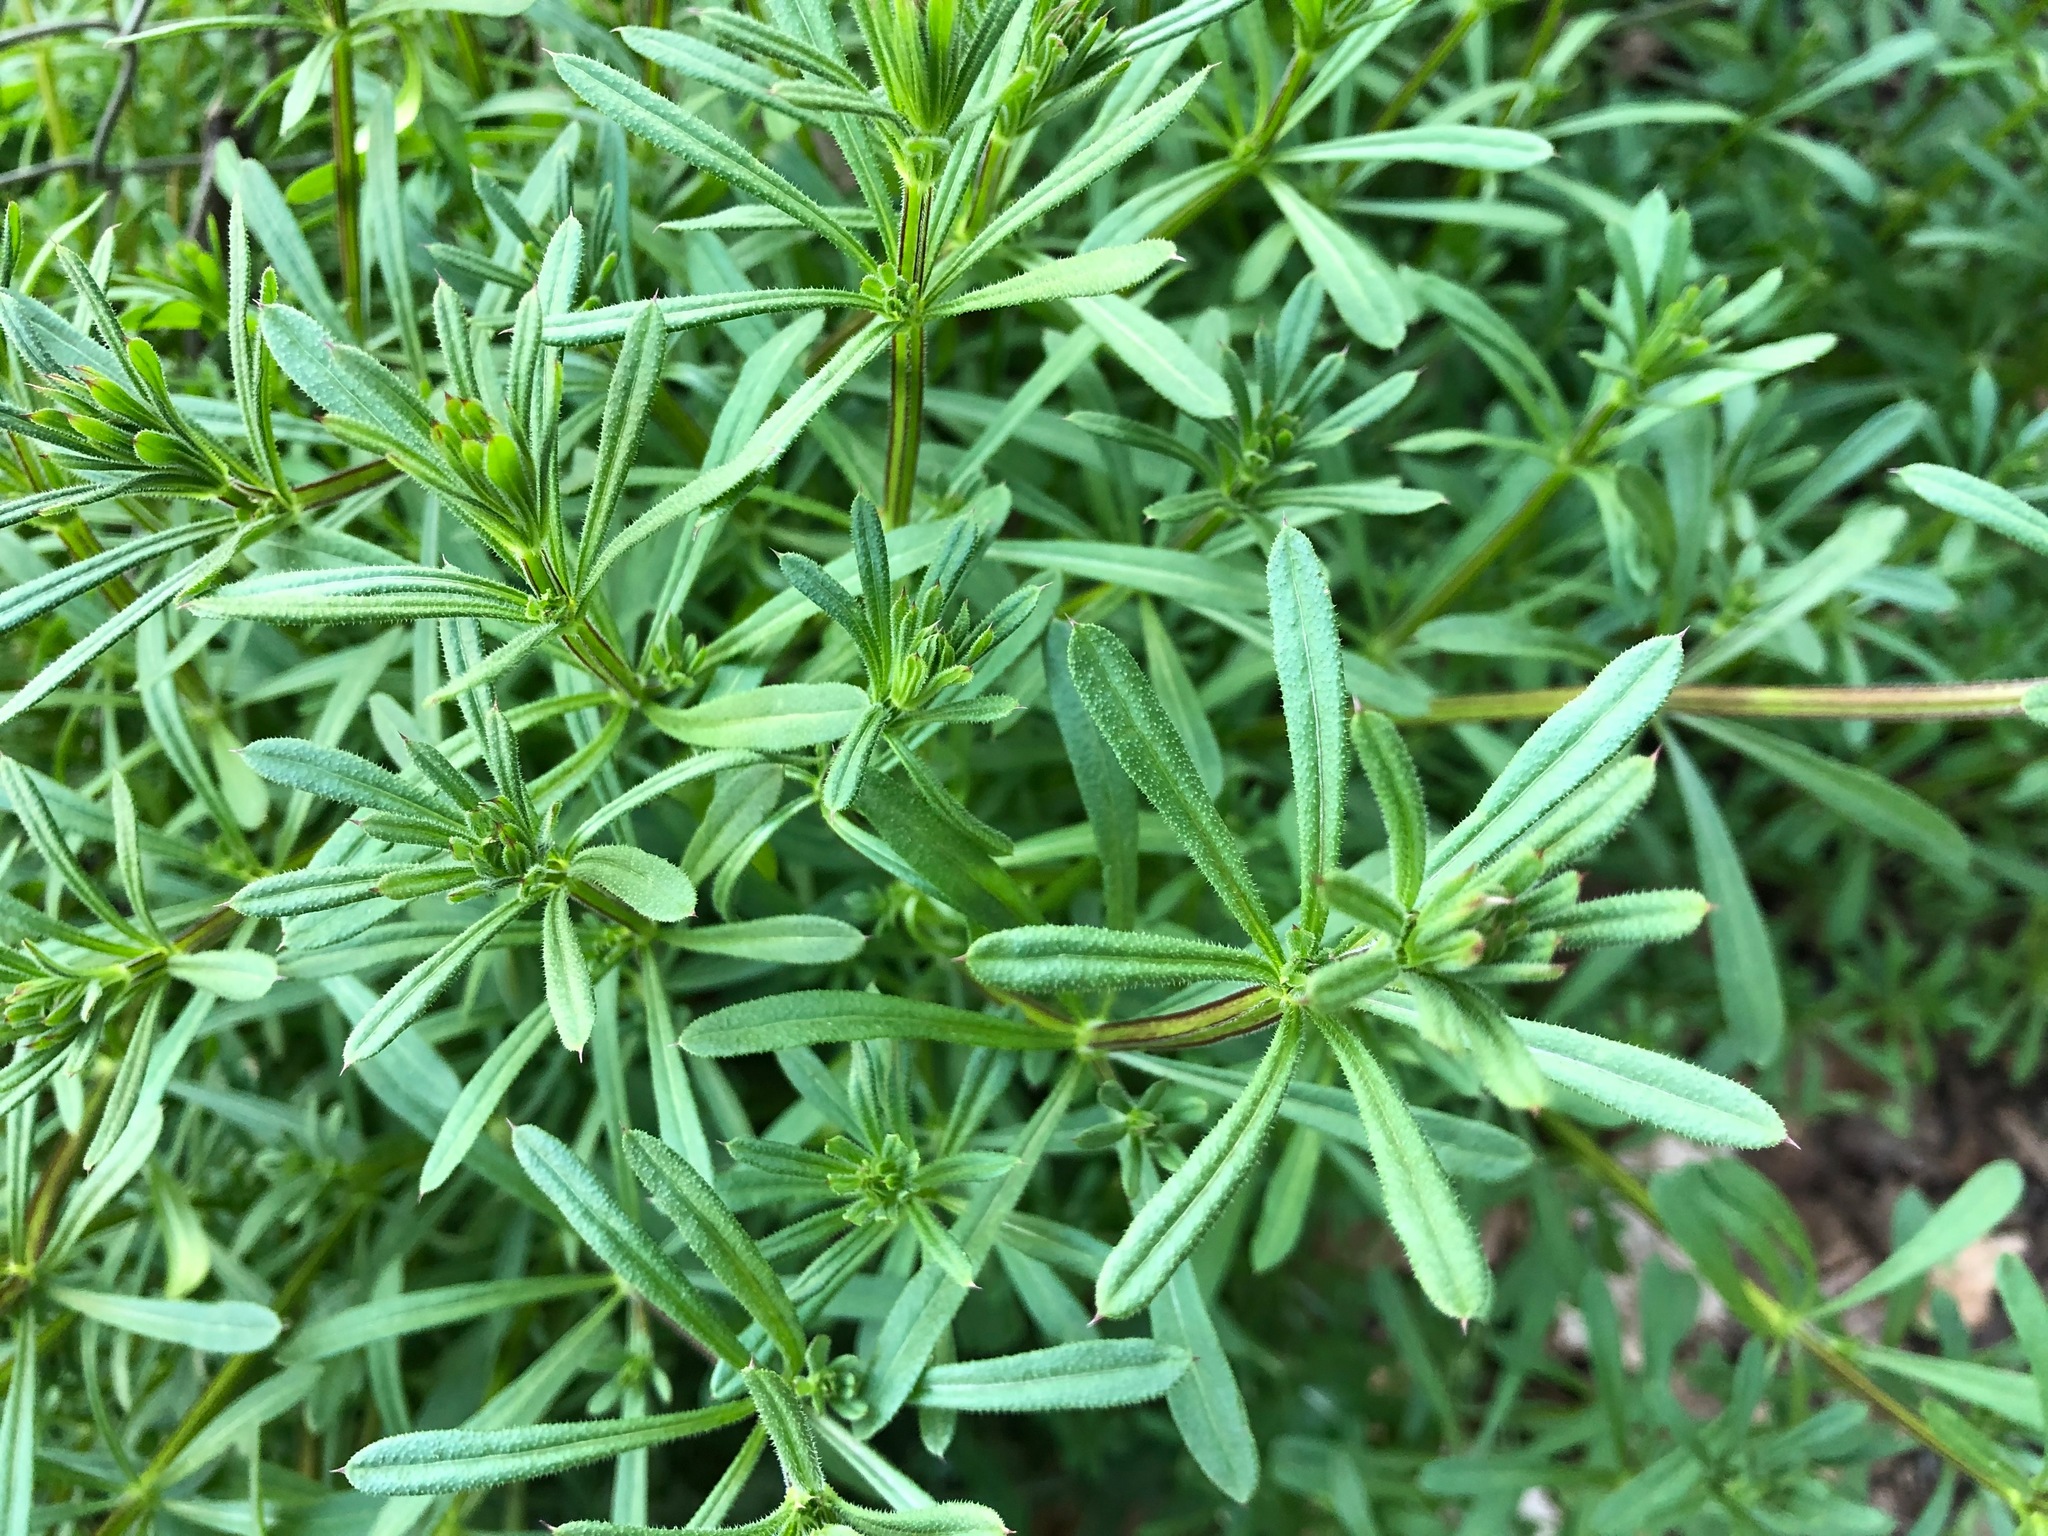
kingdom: Plantae
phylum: Tracheophyta
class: Magnoliopsida
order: Gentianales
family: Rubiaceae
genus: Galium
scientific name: Galium aparine
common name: Cleavers
